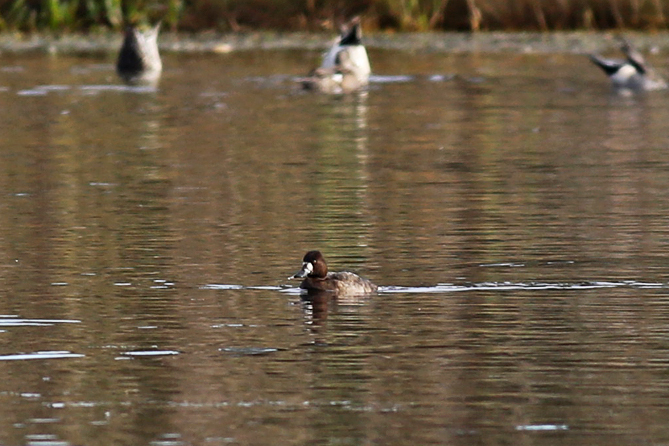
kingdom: Animalia
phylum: Chordata
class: Aves
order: Anseriformes
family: Anatidae
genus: Aythya
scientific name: Aythya affinis
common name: Lesser scaup
